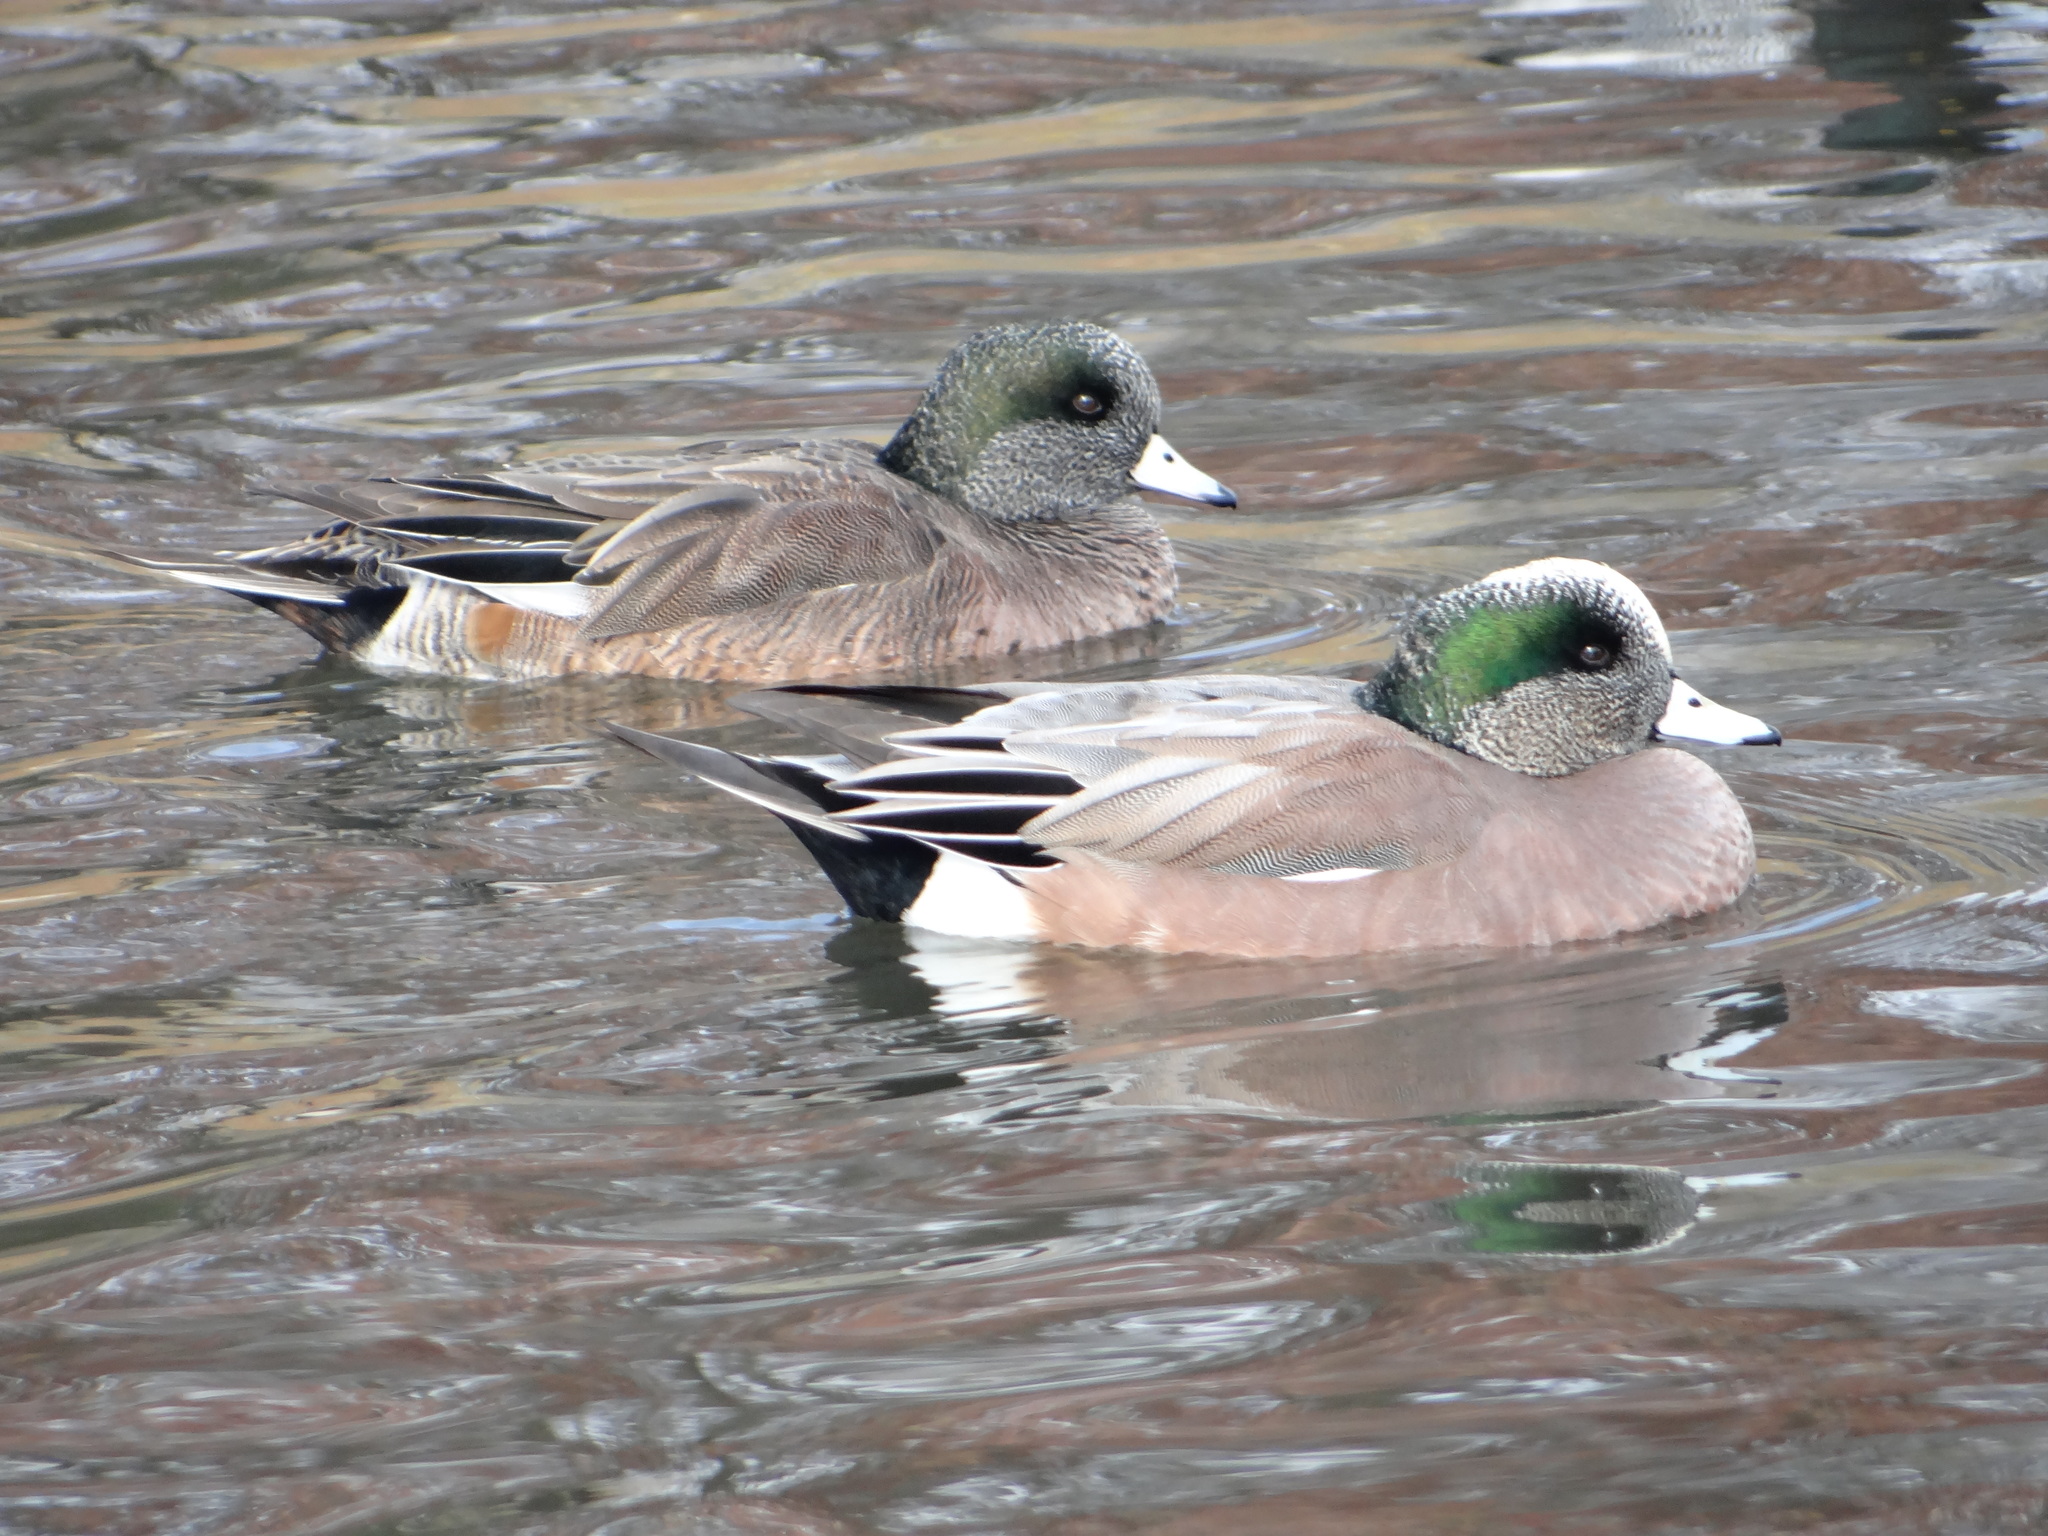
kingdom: Animalia
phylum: Chordata
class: Aves
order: Anseriformes
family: Anatidae
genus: Mareca
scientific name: Mareca americana
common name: American wigeon
